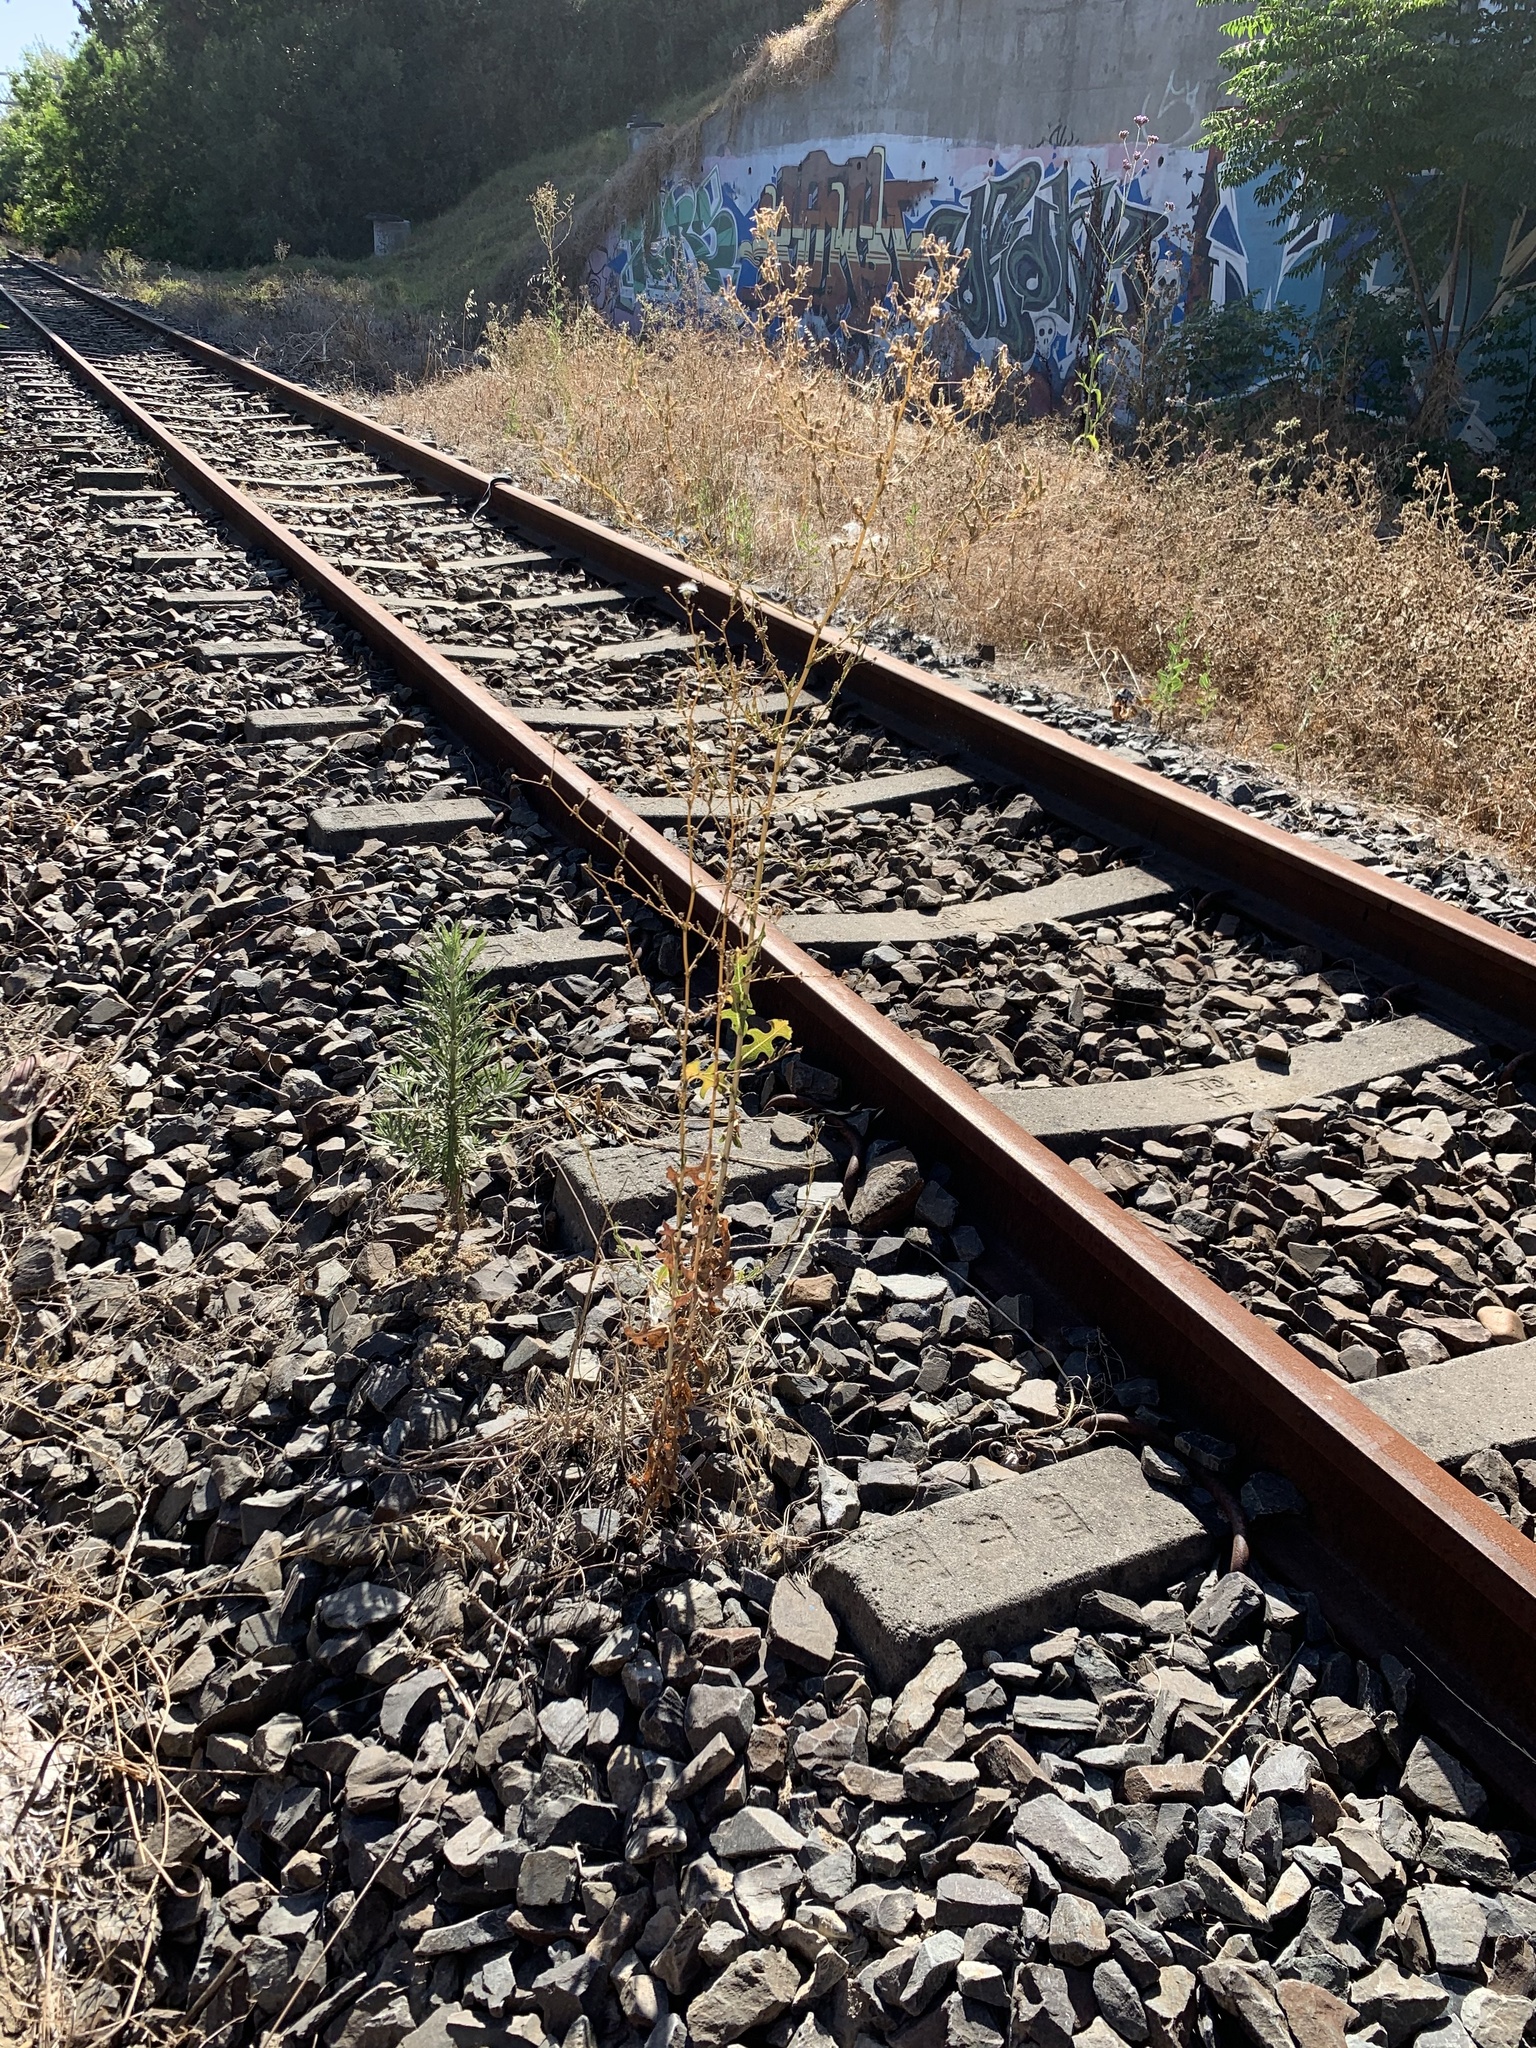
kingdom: Plantae
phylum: Tracheophyta
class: Magnoliopsida
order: Asterales
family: Asteraceae
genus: Lactuca
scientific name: Lactuca serriola
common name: Prickly lettuce
